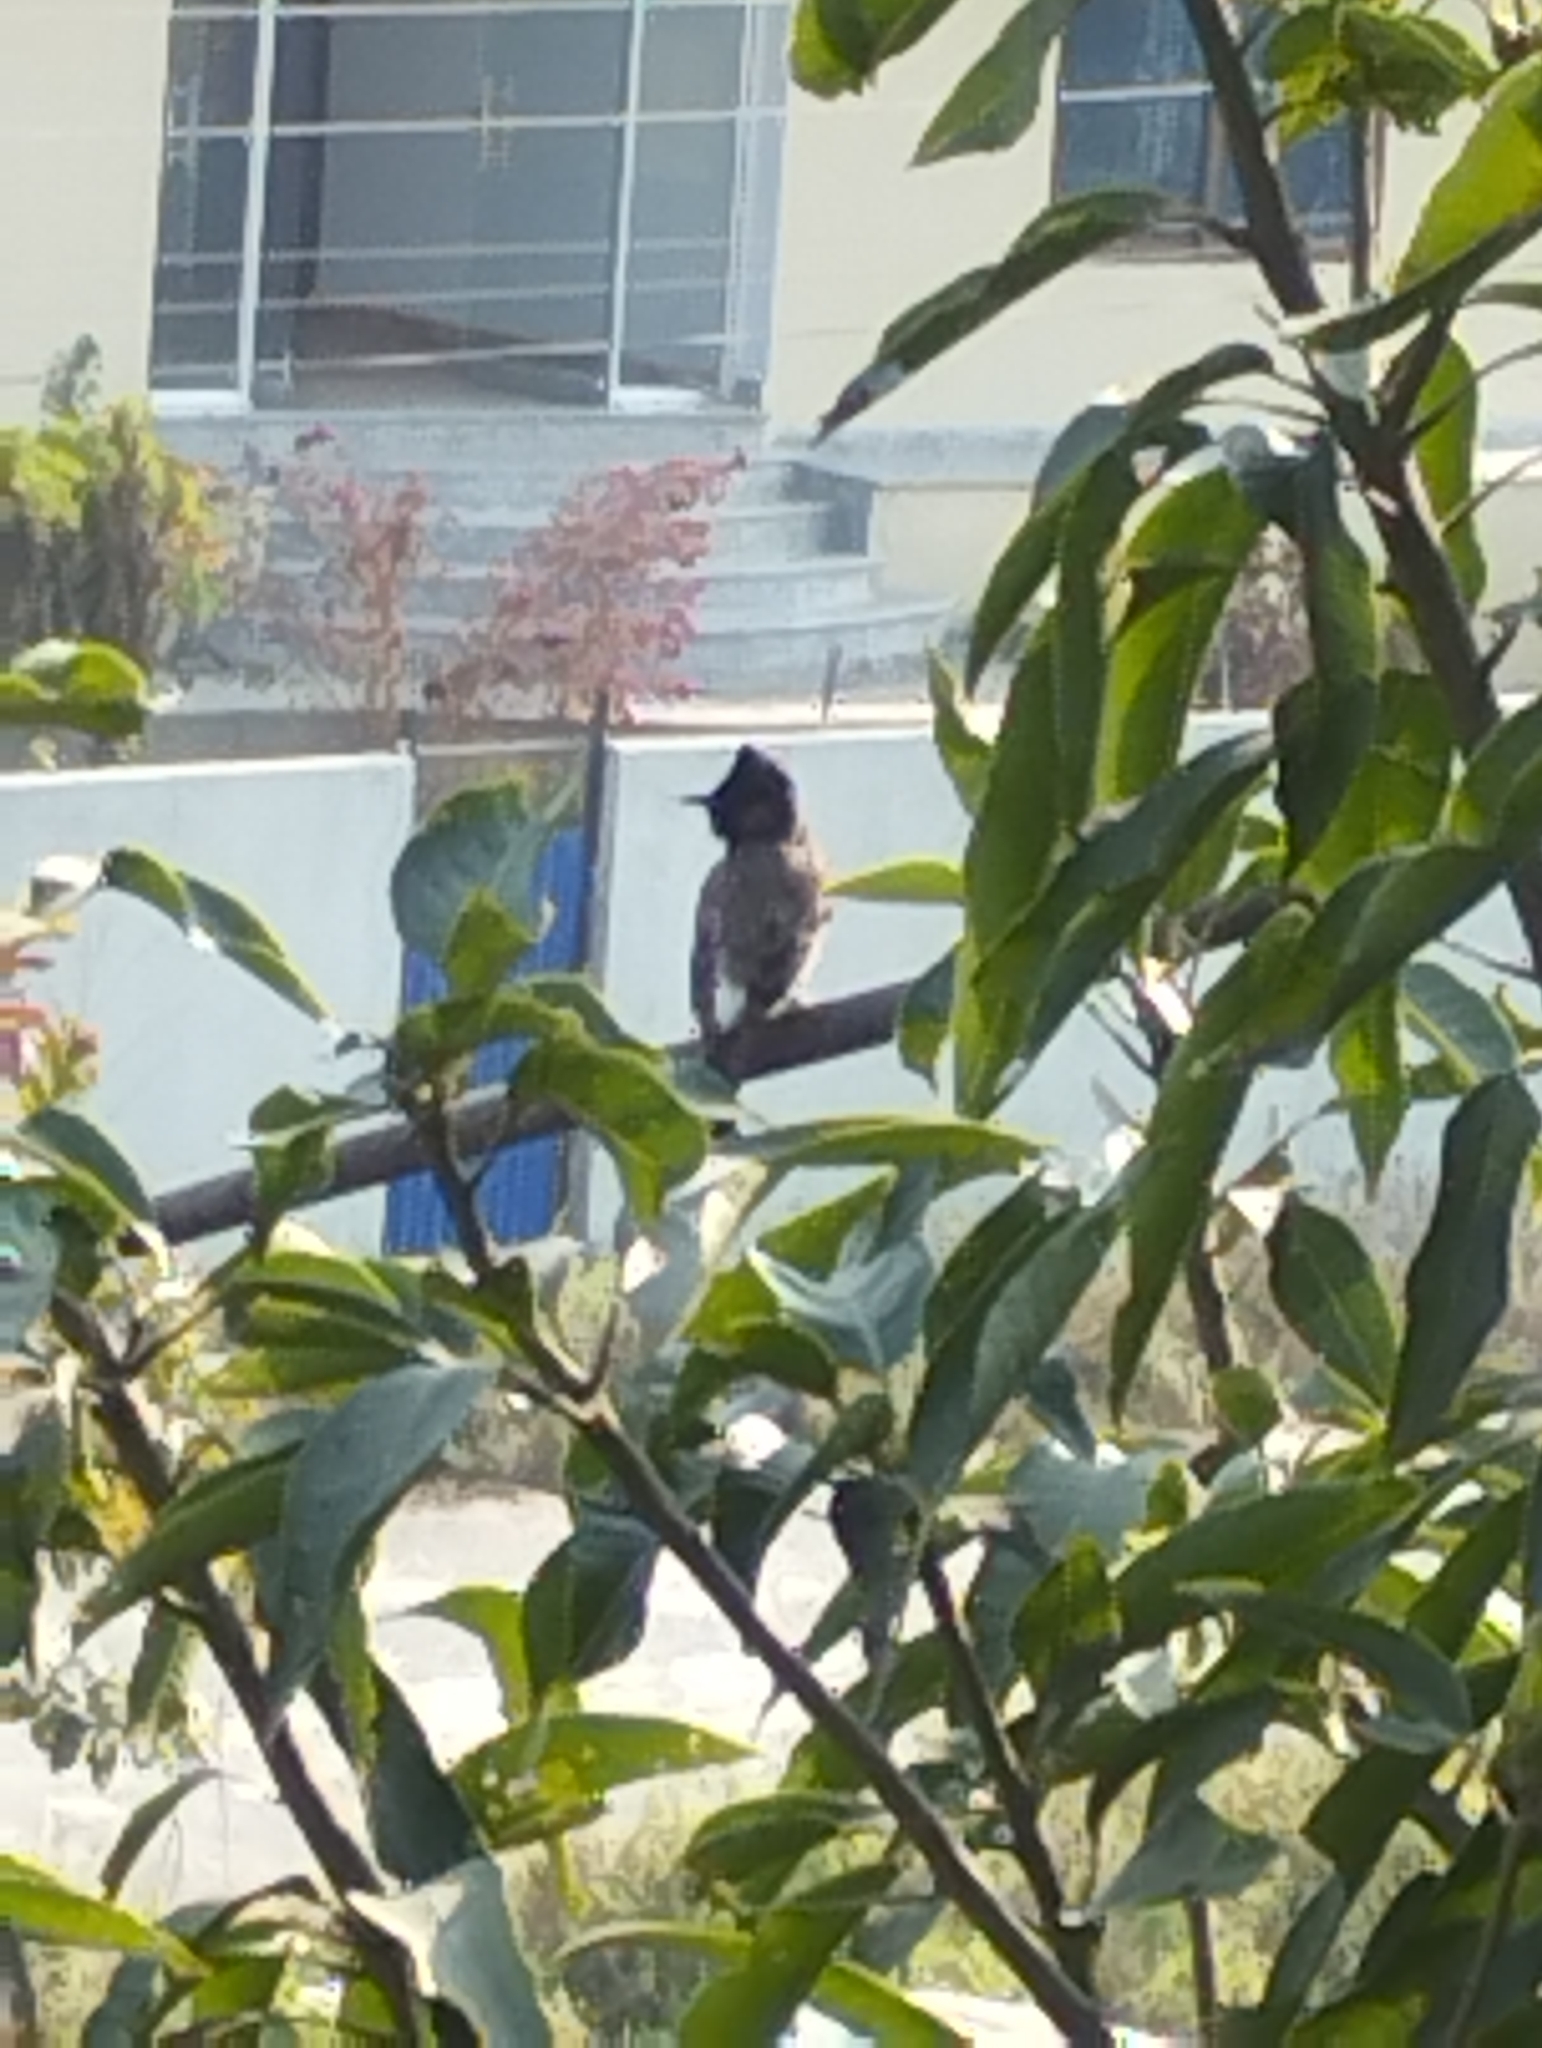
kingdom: Animalia
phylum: Chordata
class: Aves
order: Passeriformes
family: Pycnonotidae
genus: Pycnonotus
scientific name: Pycnonotus cafer
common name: Red-vented bulbul
